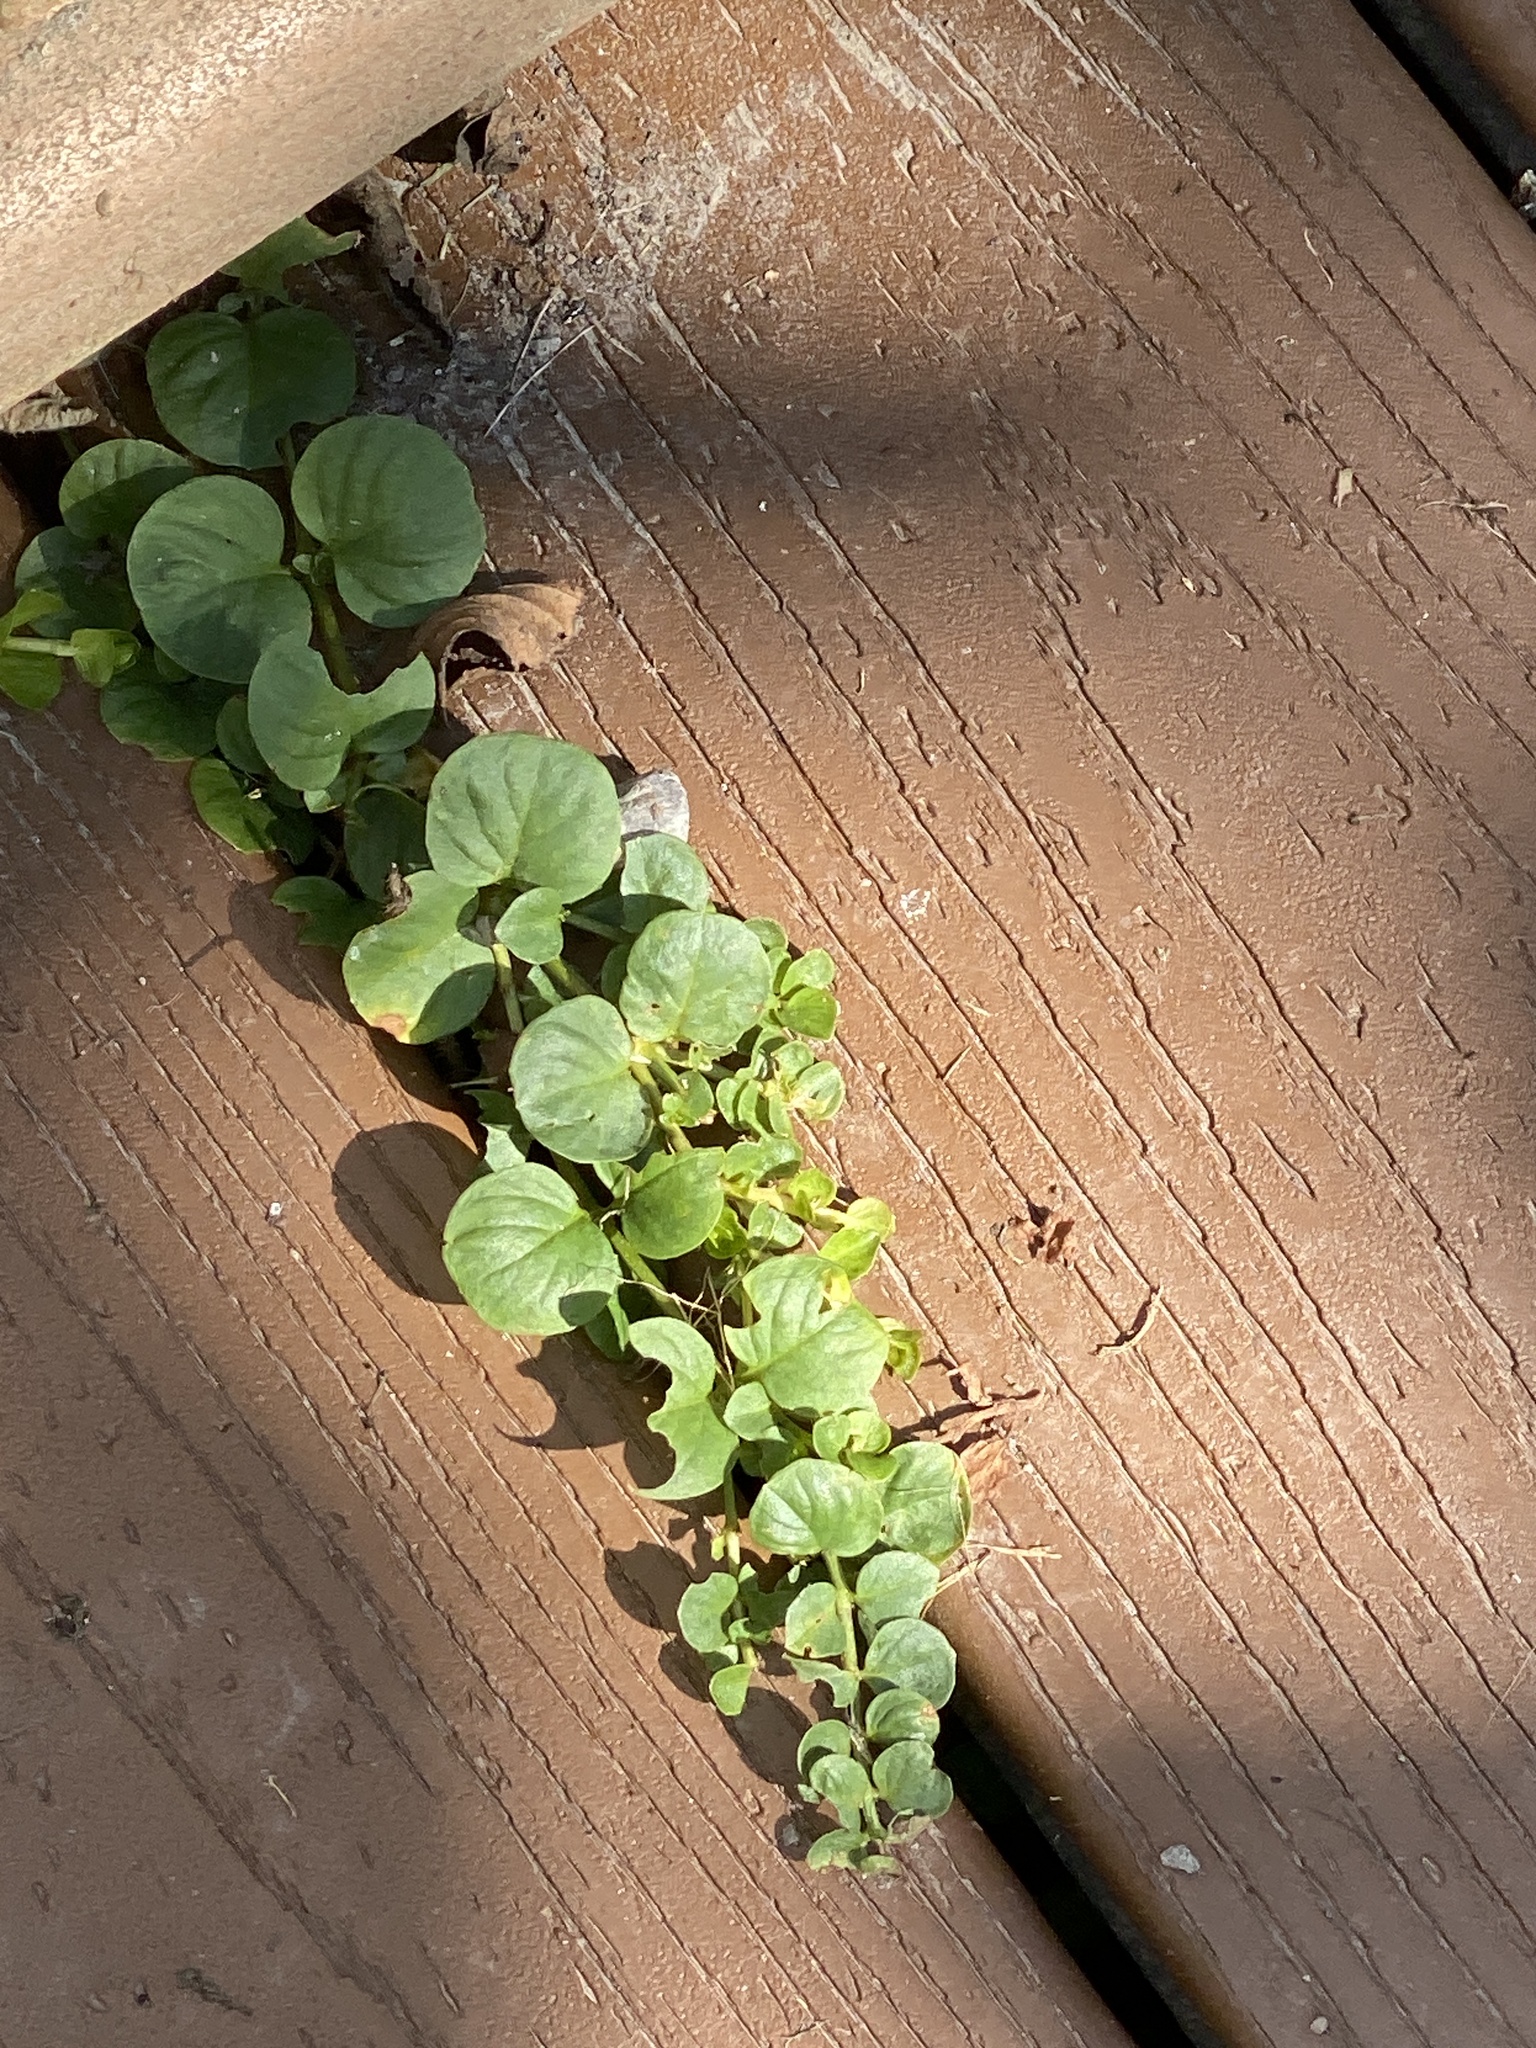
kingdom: Plantae
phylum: Tracheophyta
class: Magnoliopsida
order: Ericales
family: Primulaceae
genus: Lysimachia
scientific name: Lysimachia nummularia
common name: Moneywort
